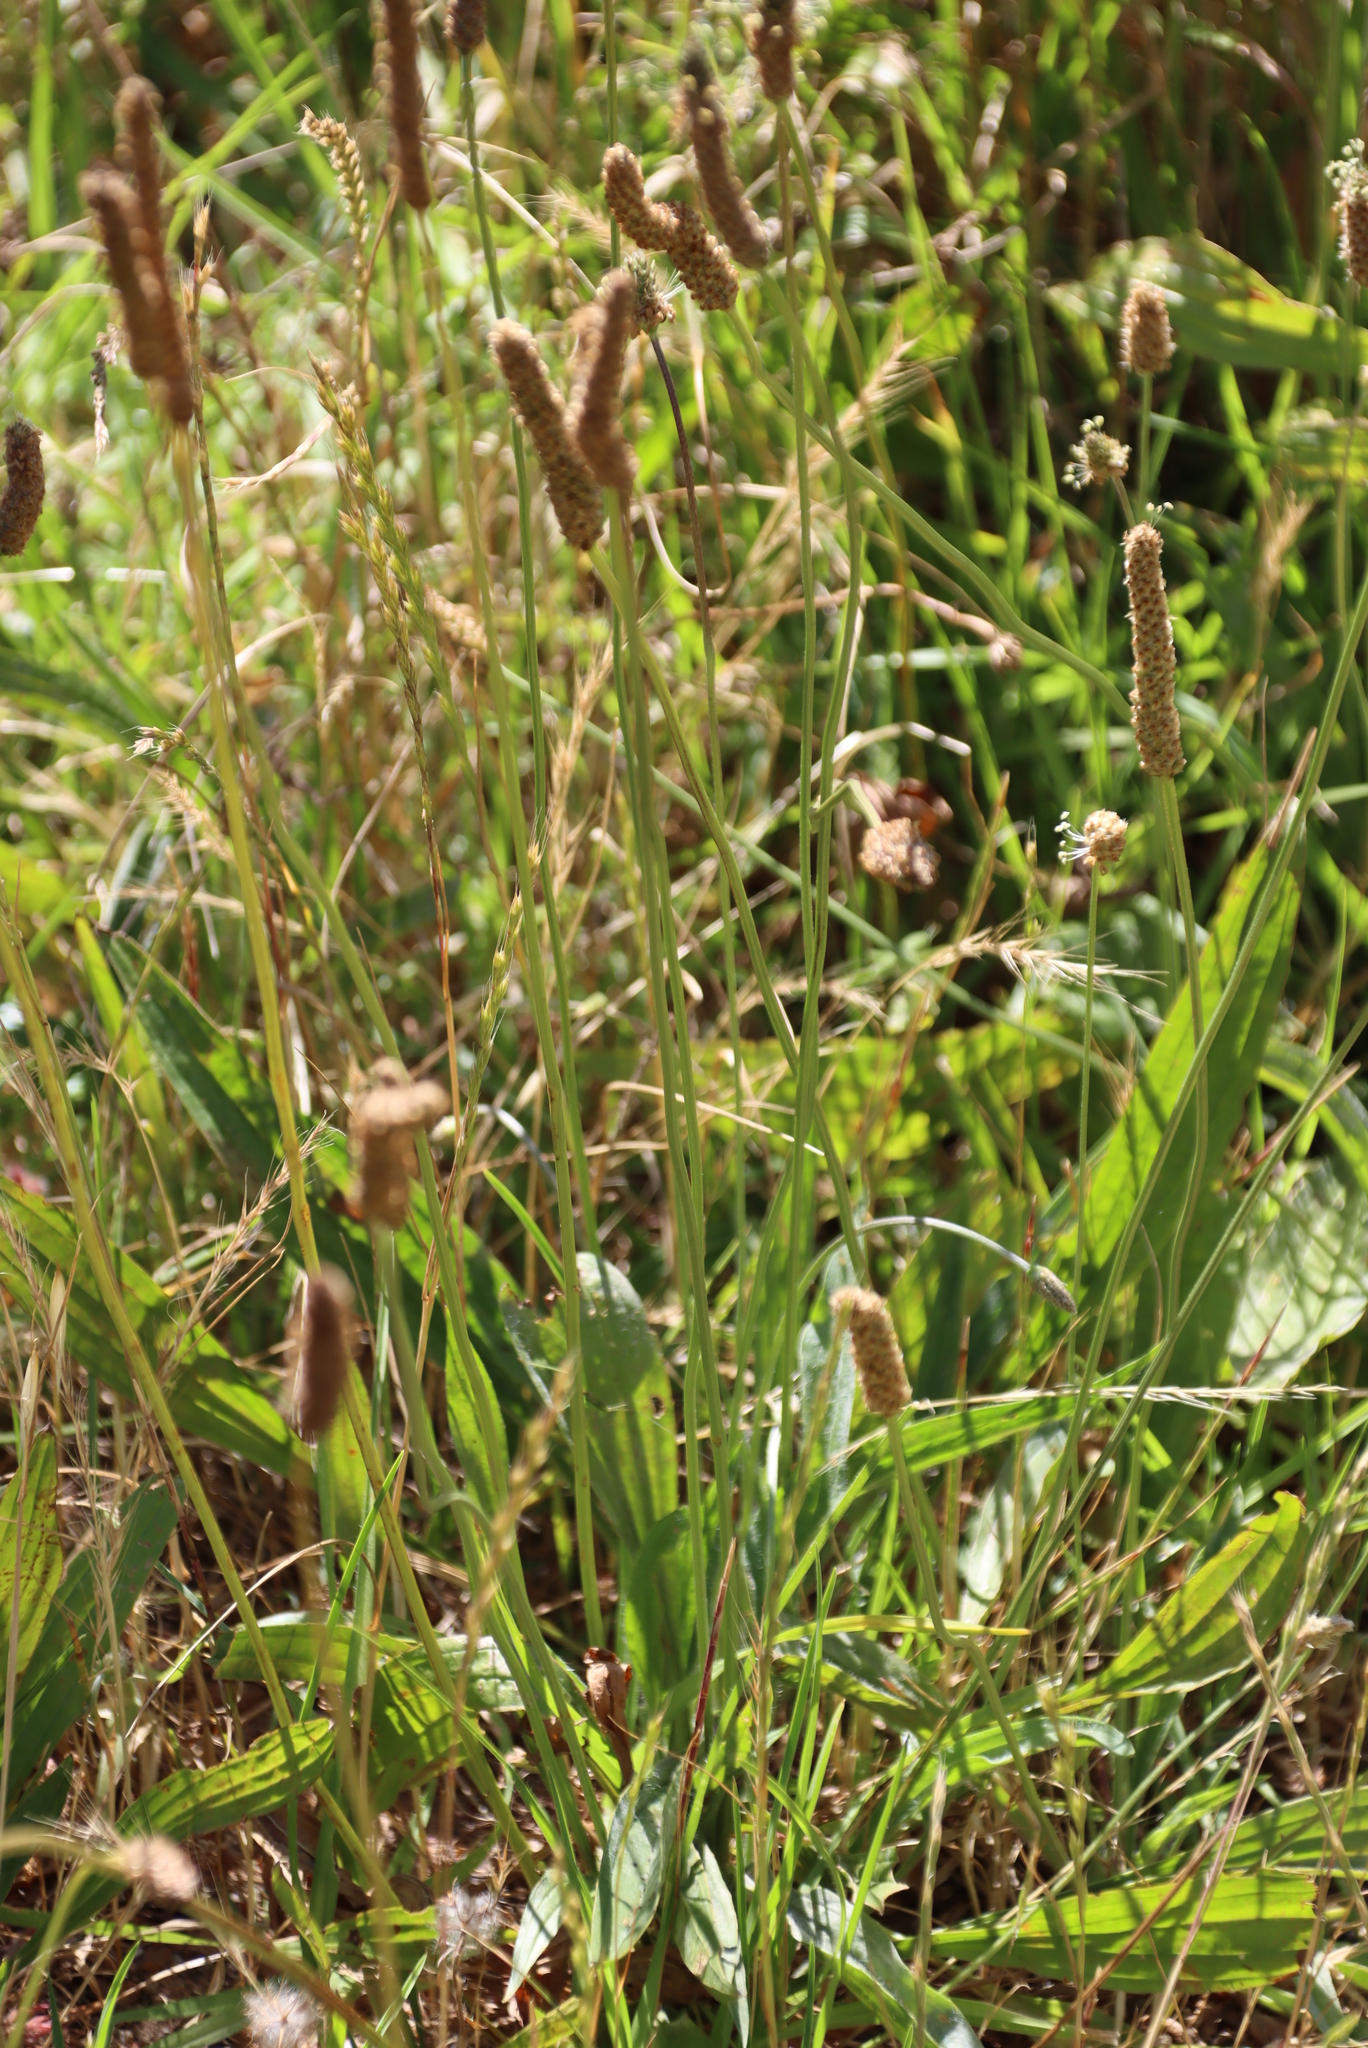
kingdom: Plantae
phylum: Tracheophyta
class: Magnoliopsida
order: Lamiales
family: Plantaginaceae
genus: Plantago
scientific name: Plantago lanceolata
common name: Ribwort plantain
